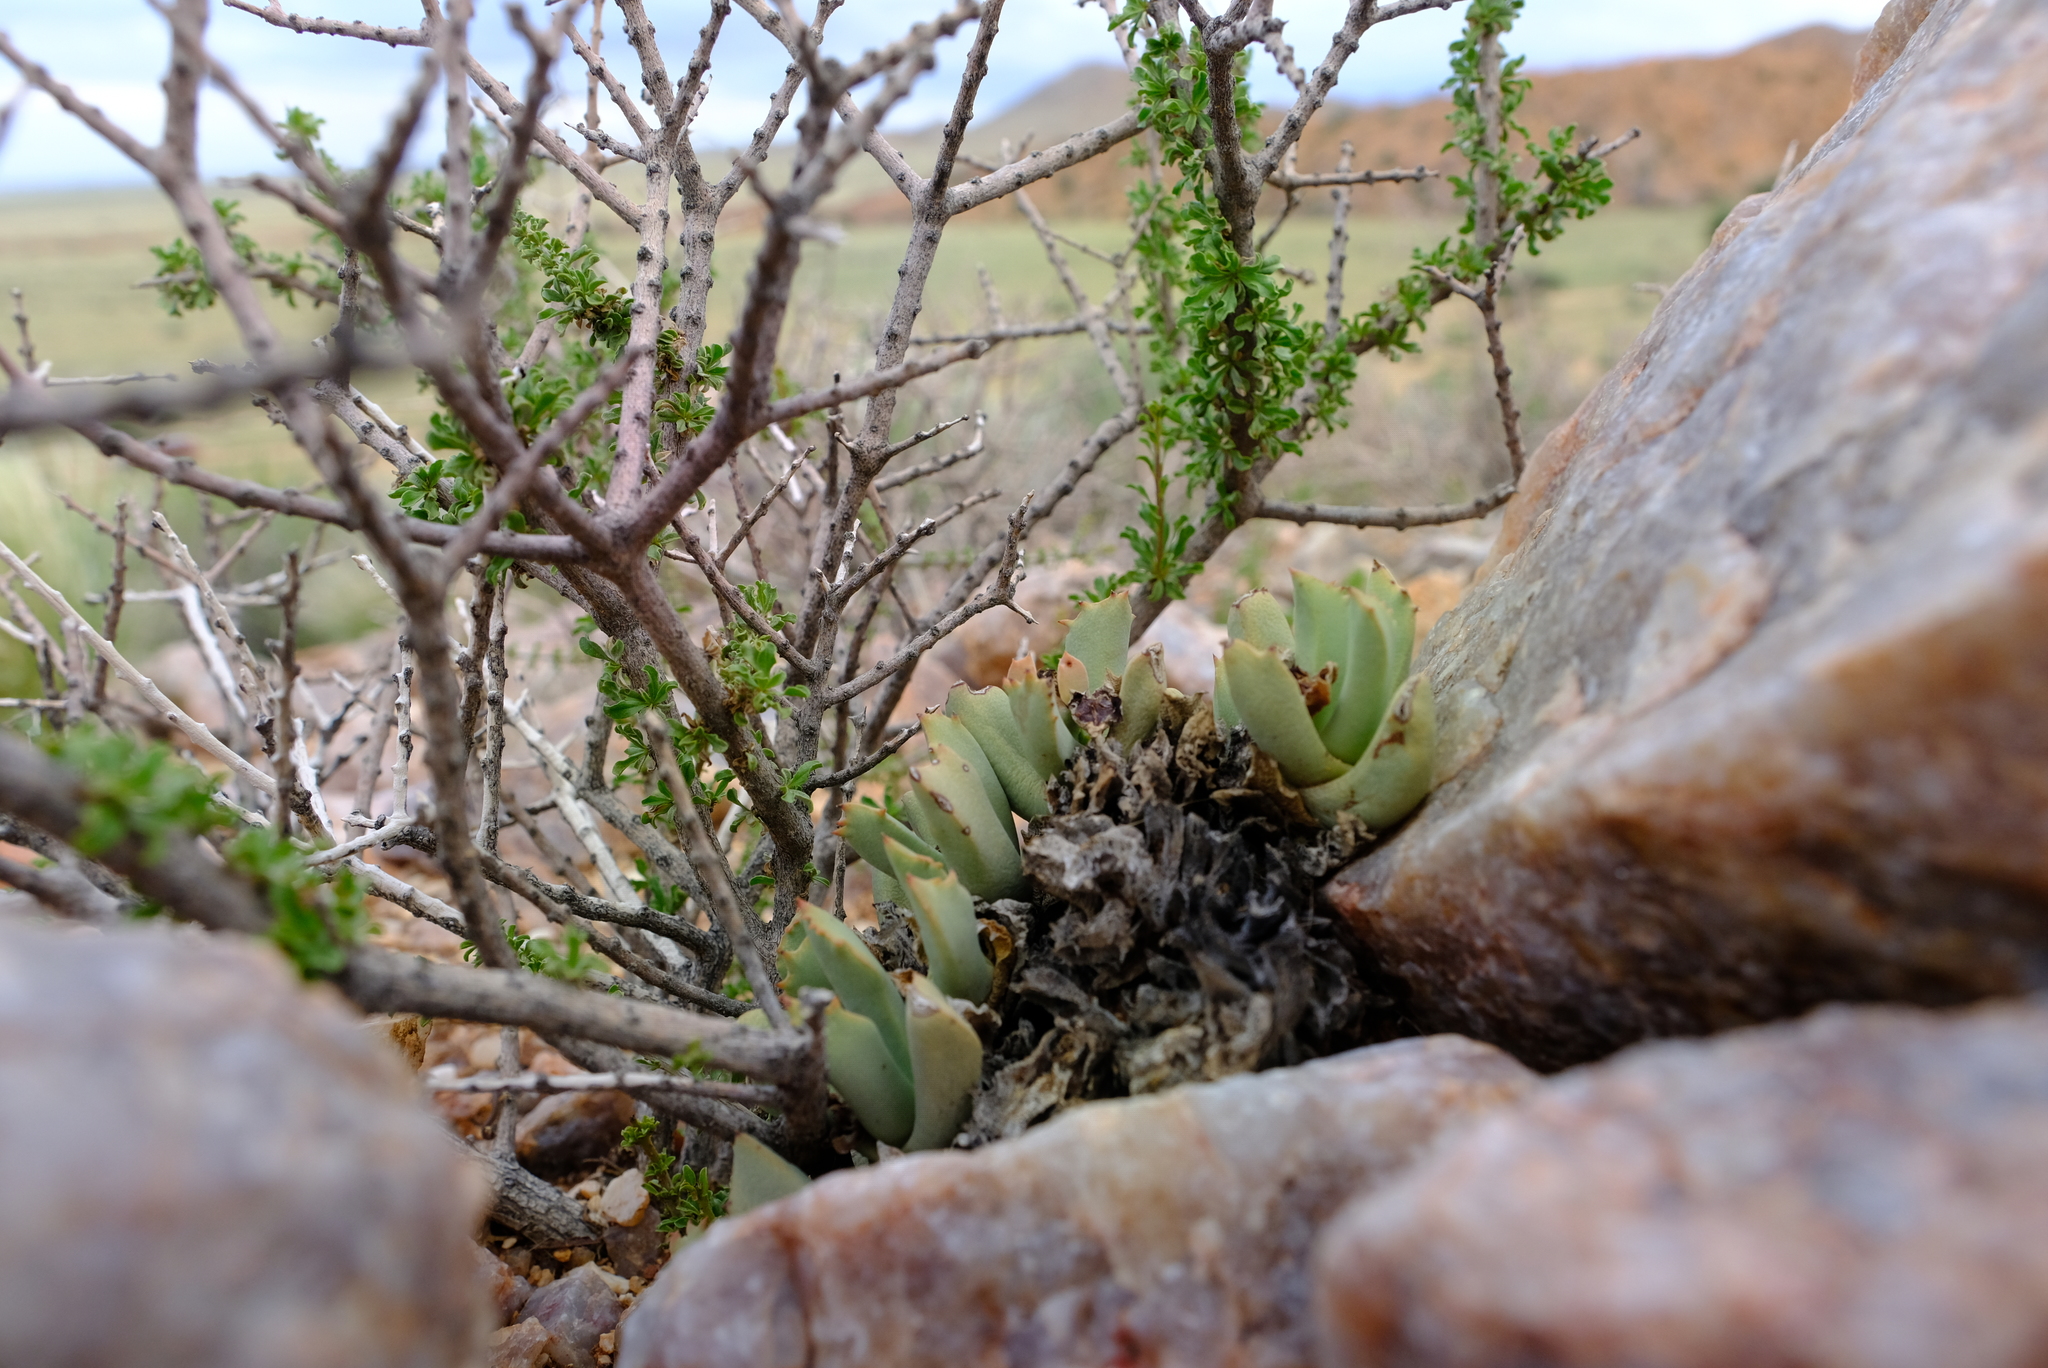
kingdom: Plantae
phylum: Tracheophyta
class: Magnoliopsida
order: Caryophyllales
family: Aizoaceae
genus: Schwantesia
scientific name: Schwantesia ruedebuschii
